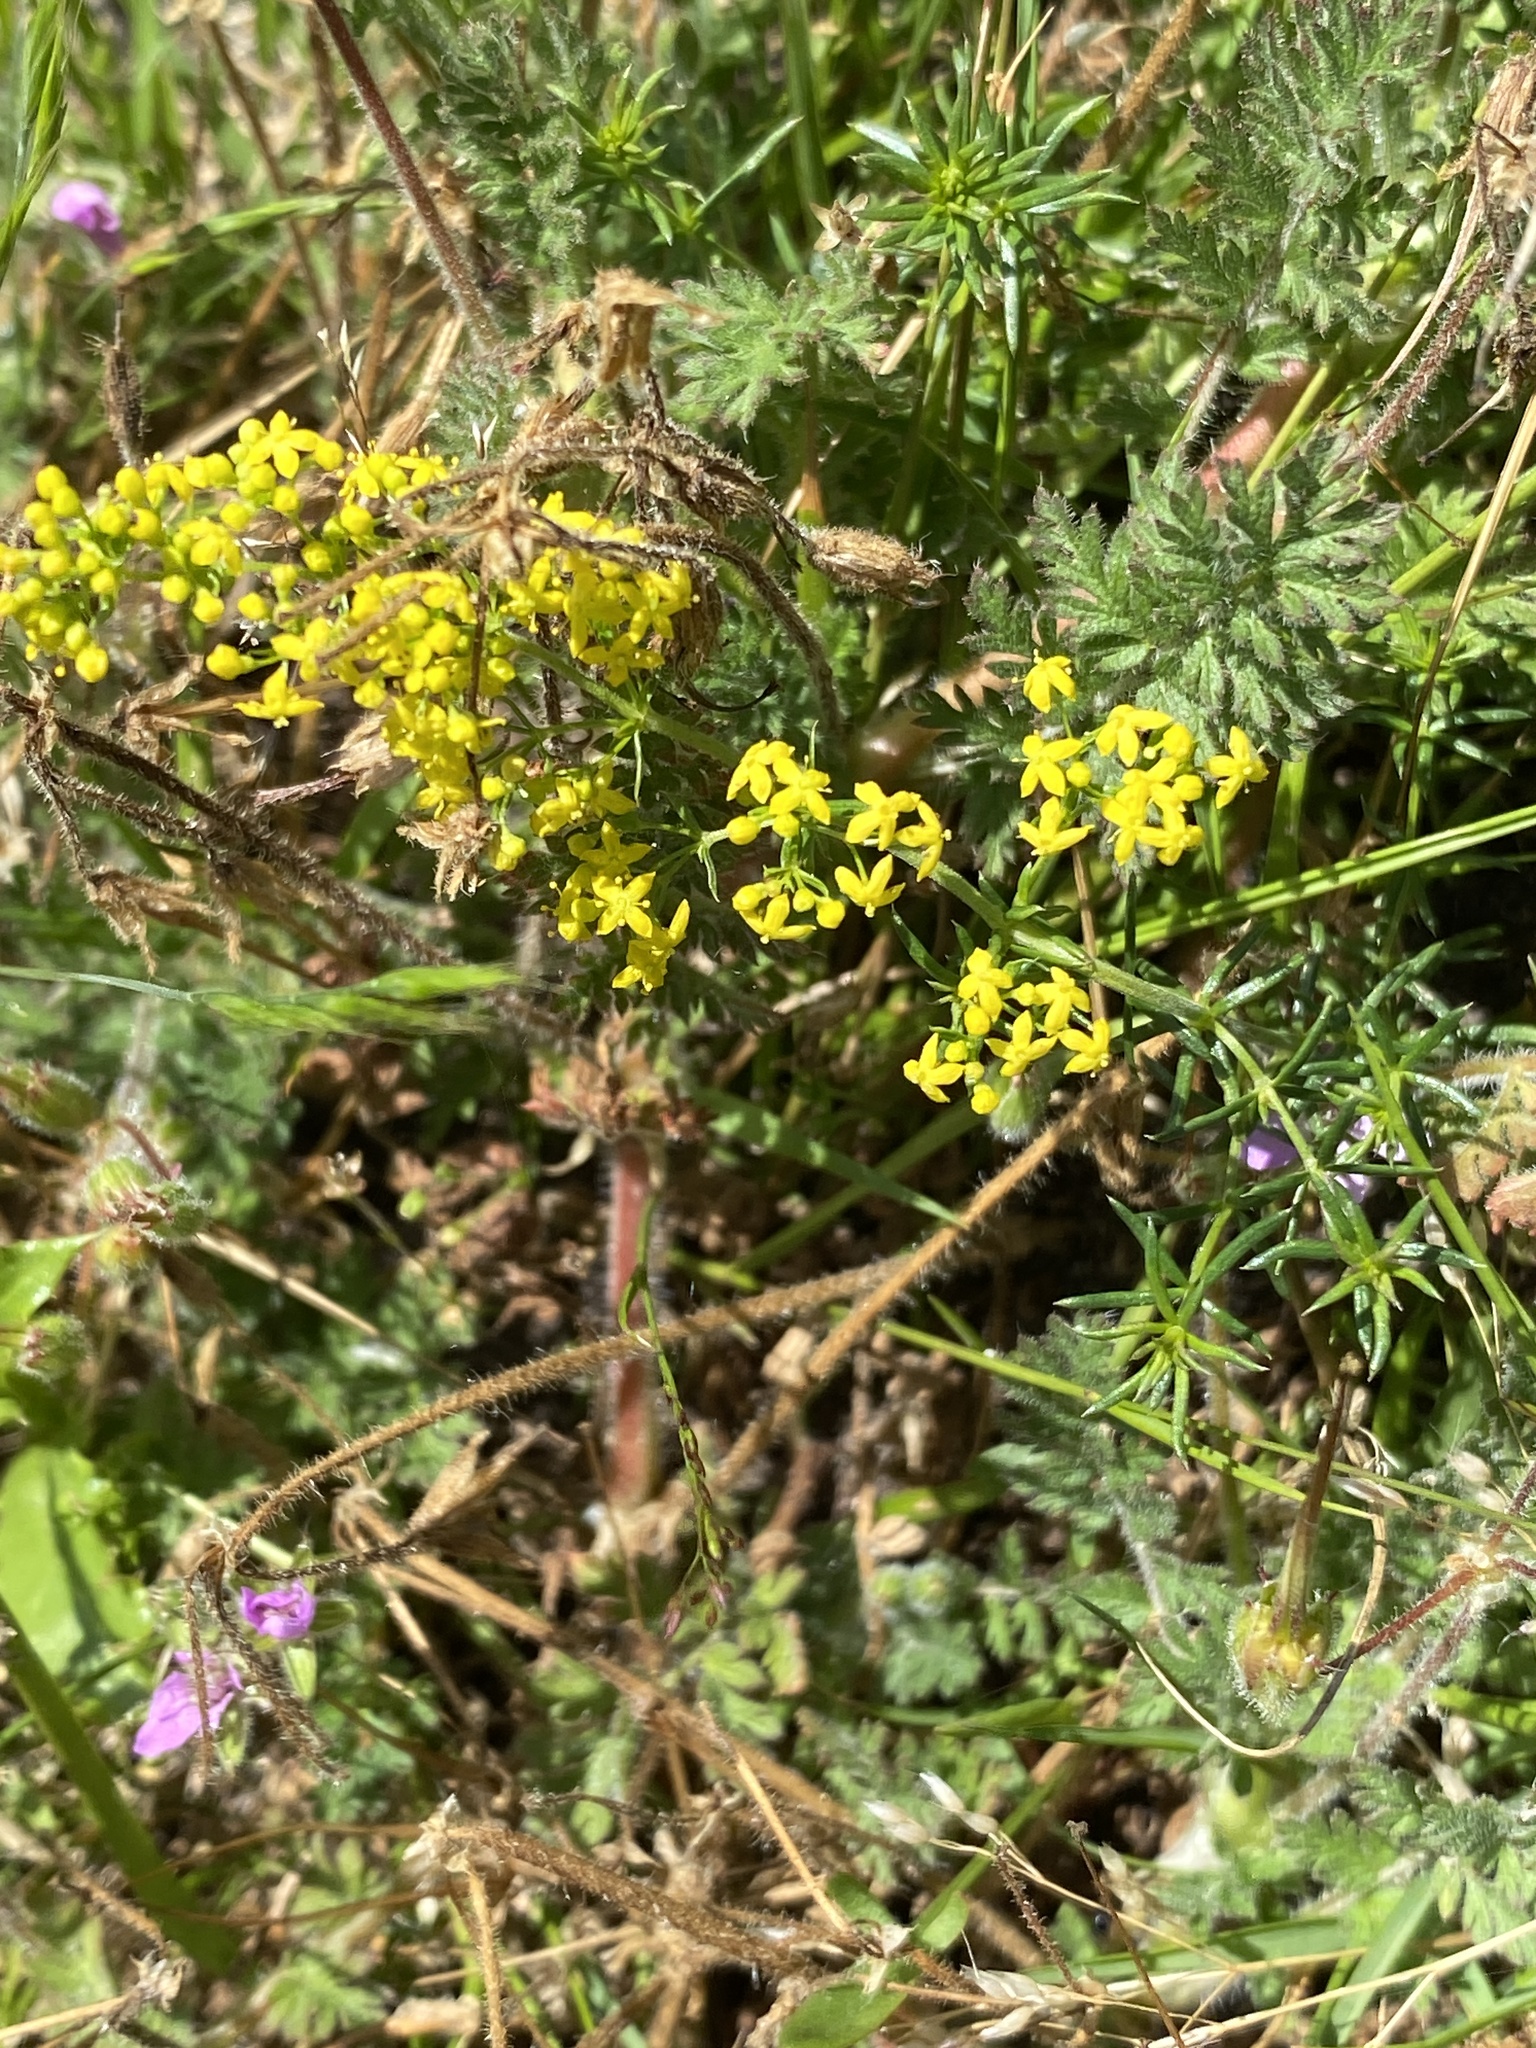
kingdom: Plantae
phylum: Tracheophyta
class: Magnoliopsida
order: Gentianales
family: Rubiaceae
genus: Galium
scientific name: Galium verum
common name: Lady's bedstraw
